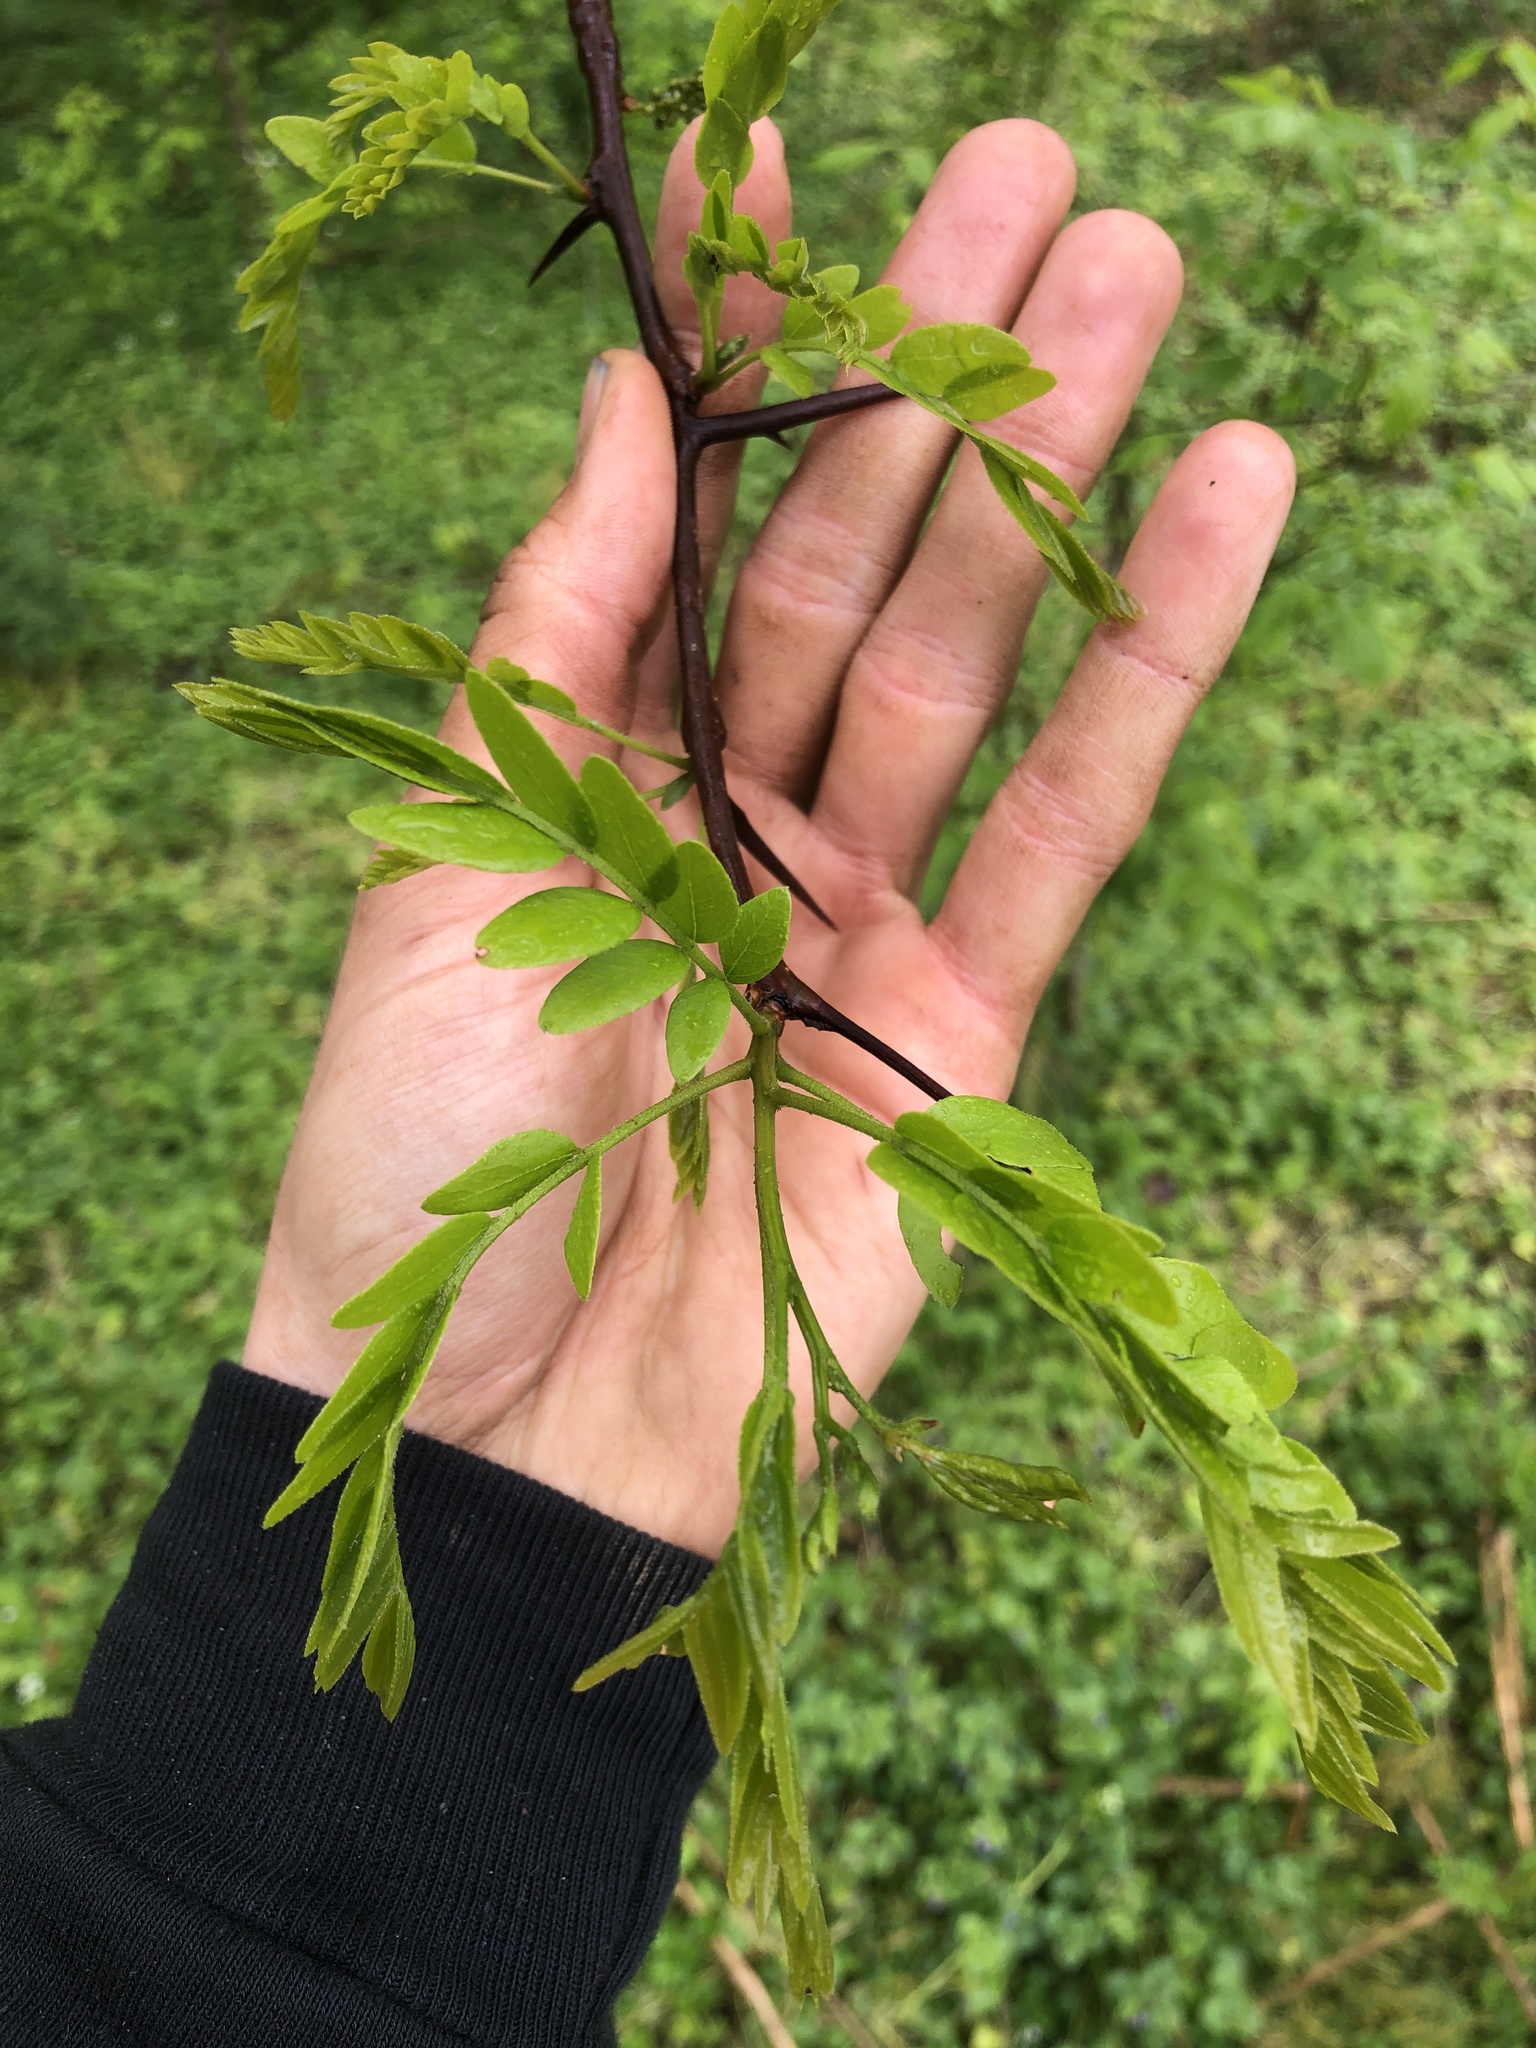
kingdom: Plantae
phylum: Tracheophyta
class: Magnoliopsida
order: Fabales
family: Fabaceae
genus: Gleditsia
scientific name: Gleditsia triacanthos
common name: Common honeylocust
